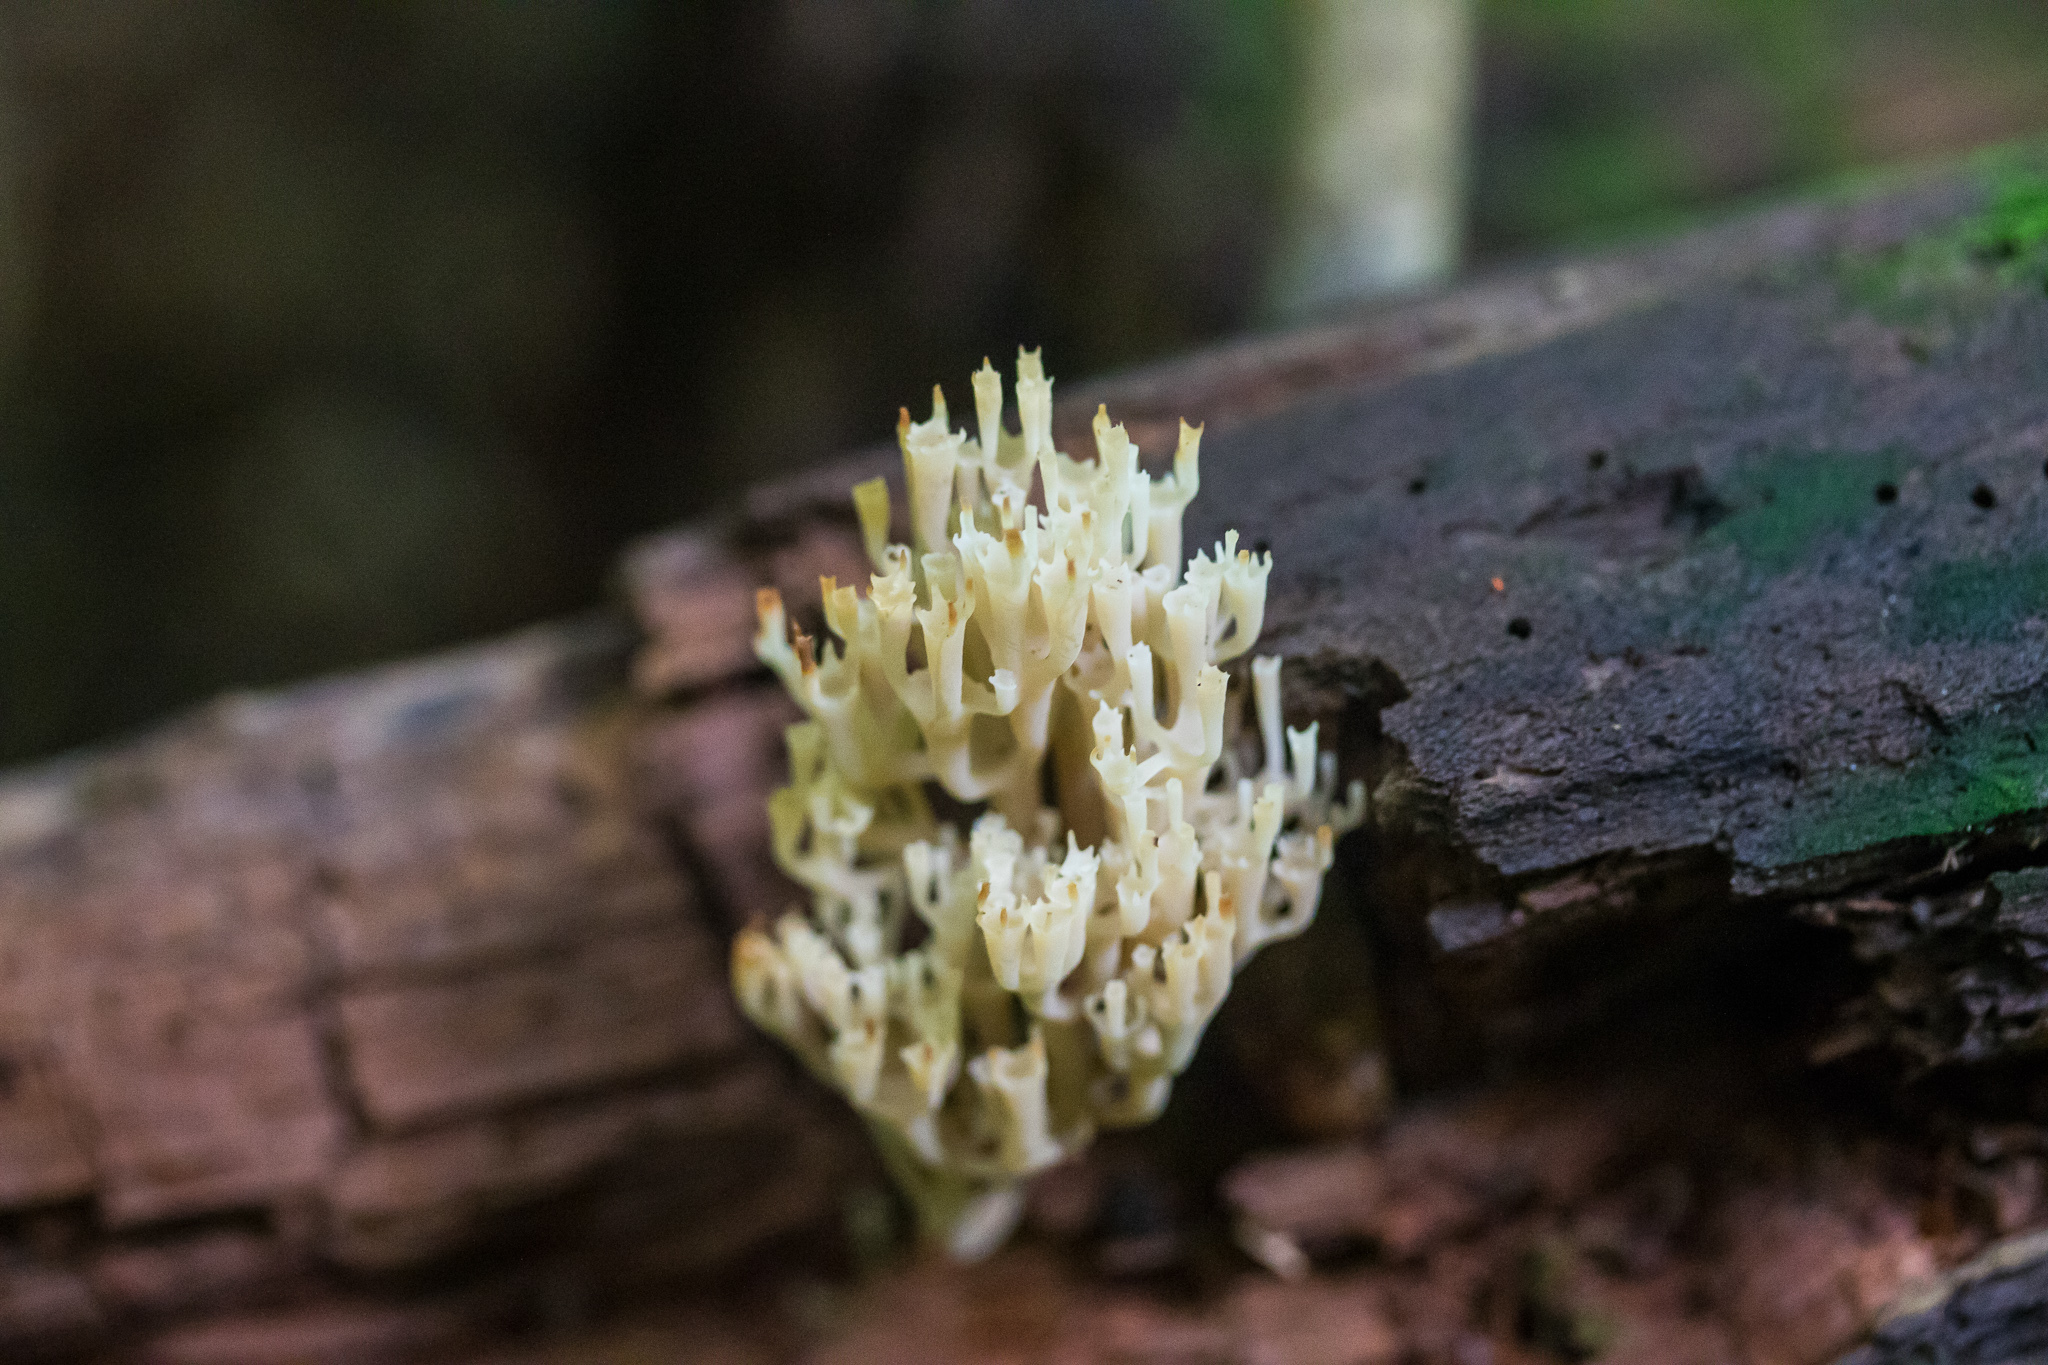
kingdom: Fungi
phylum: Basidiomycota
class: Agaricomycetes
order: Russulales
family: Auriscalpiaceae
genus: Artomyces
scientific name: Artomyces pyxidatus
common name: Crown-tipped coral fungus
